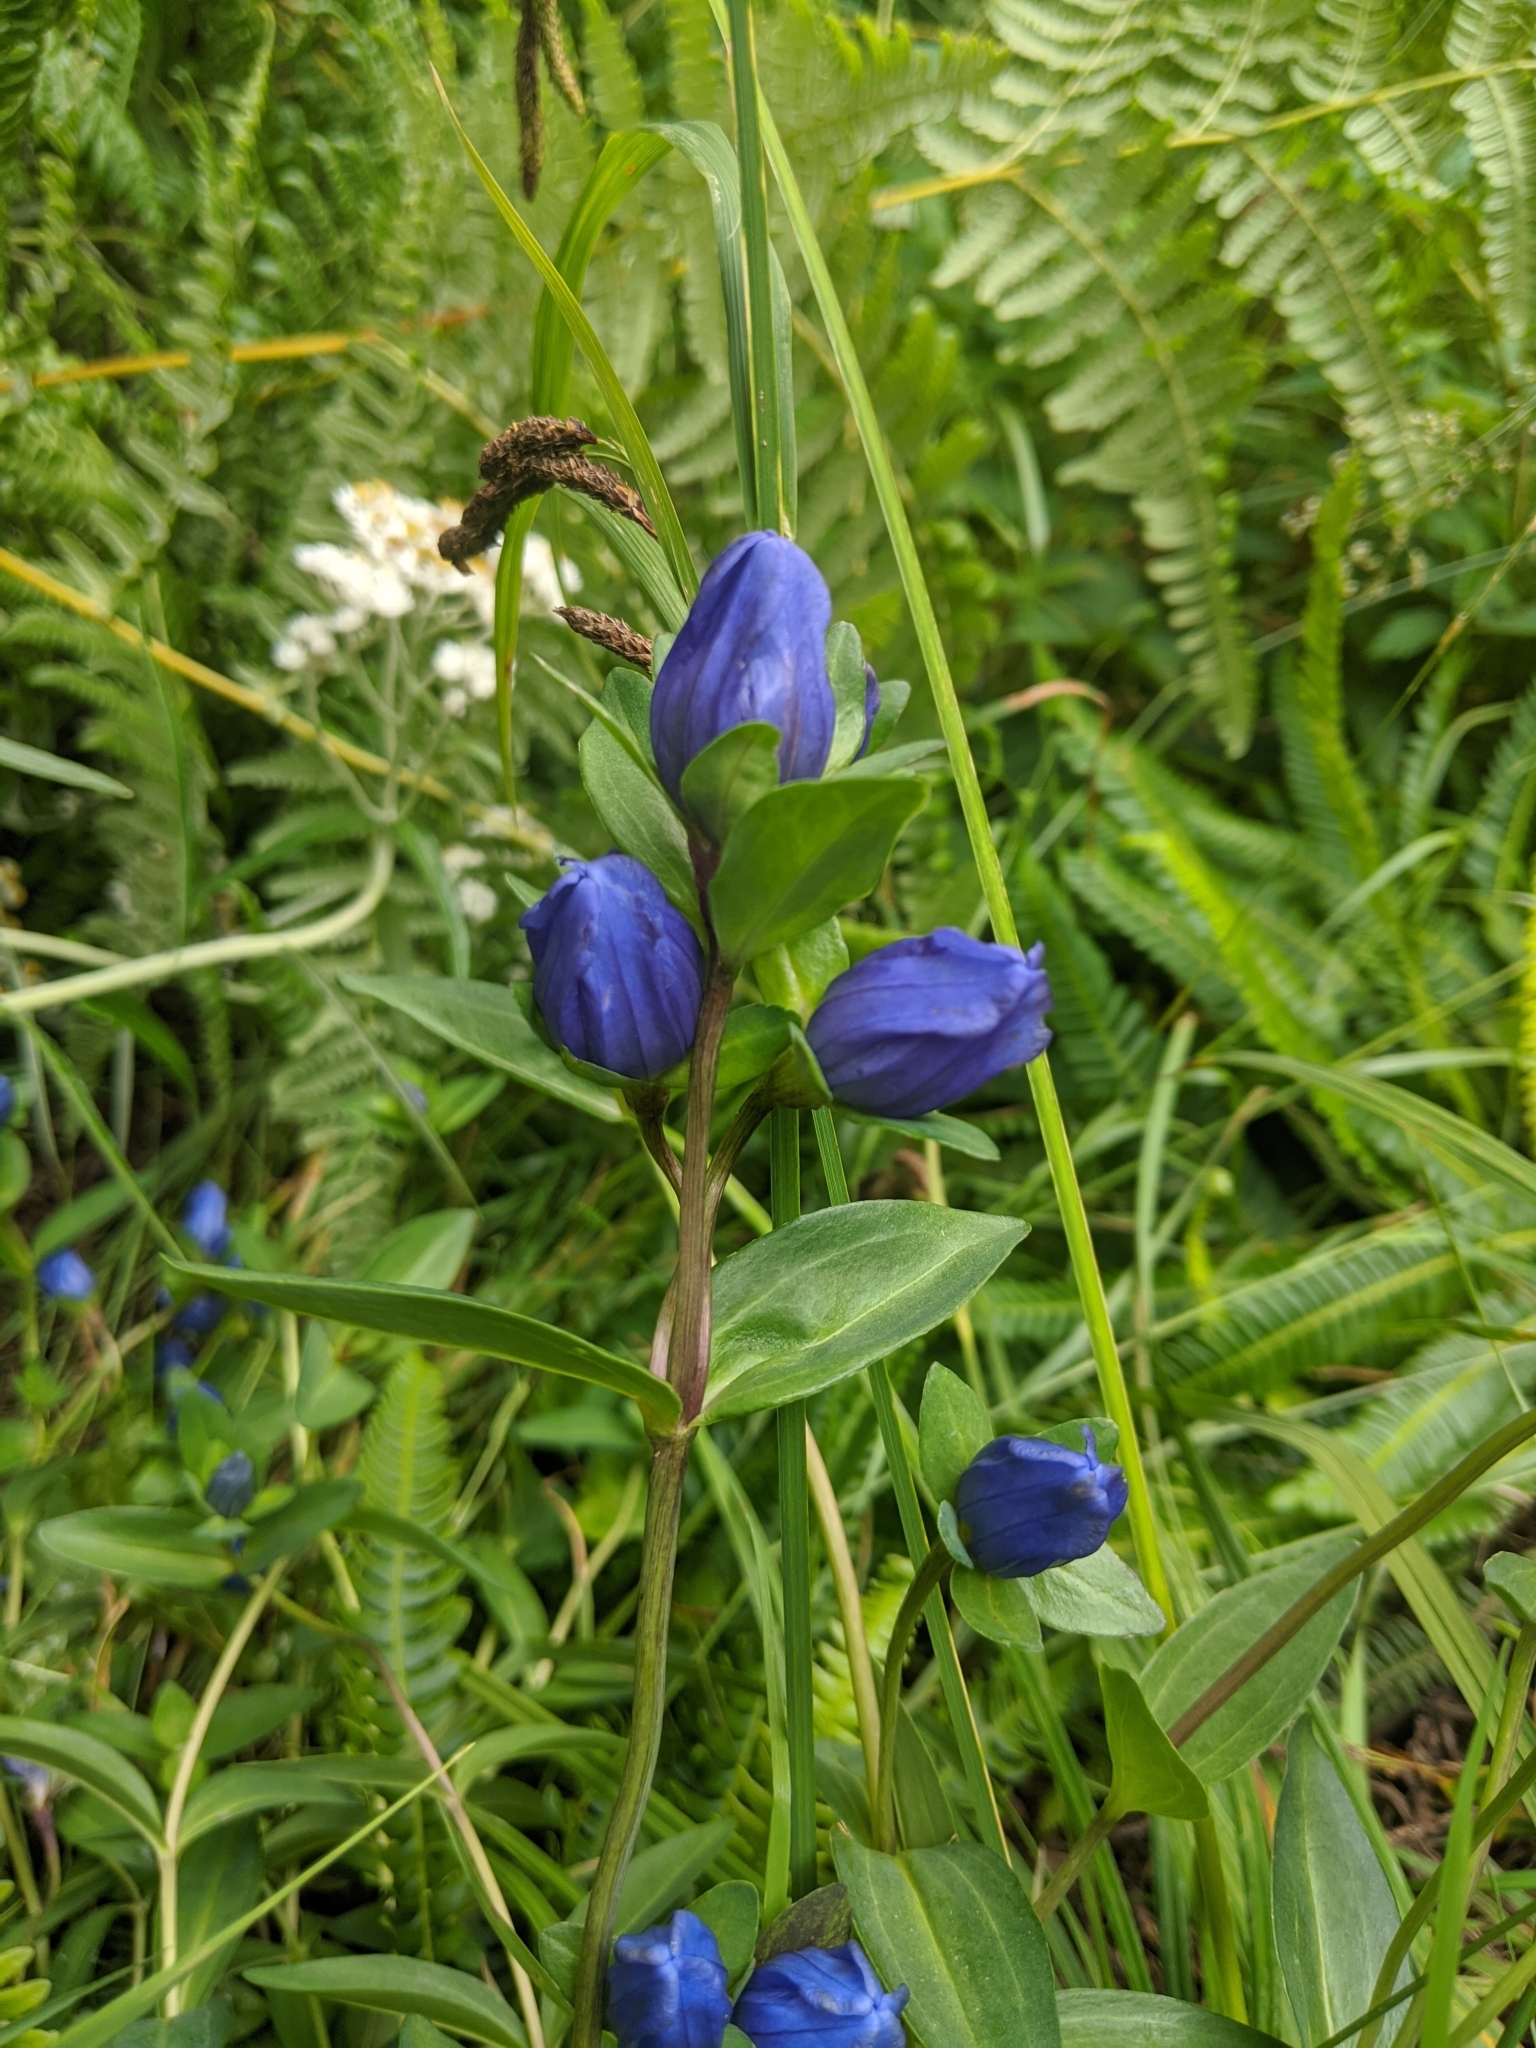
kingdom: Plantae
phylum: Tracheophyta
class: Magnoliopsida
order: Gentianales
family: Gentianaceae
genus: Gentiana
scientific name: Gentiana sceptrum
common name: Pacific gentian
